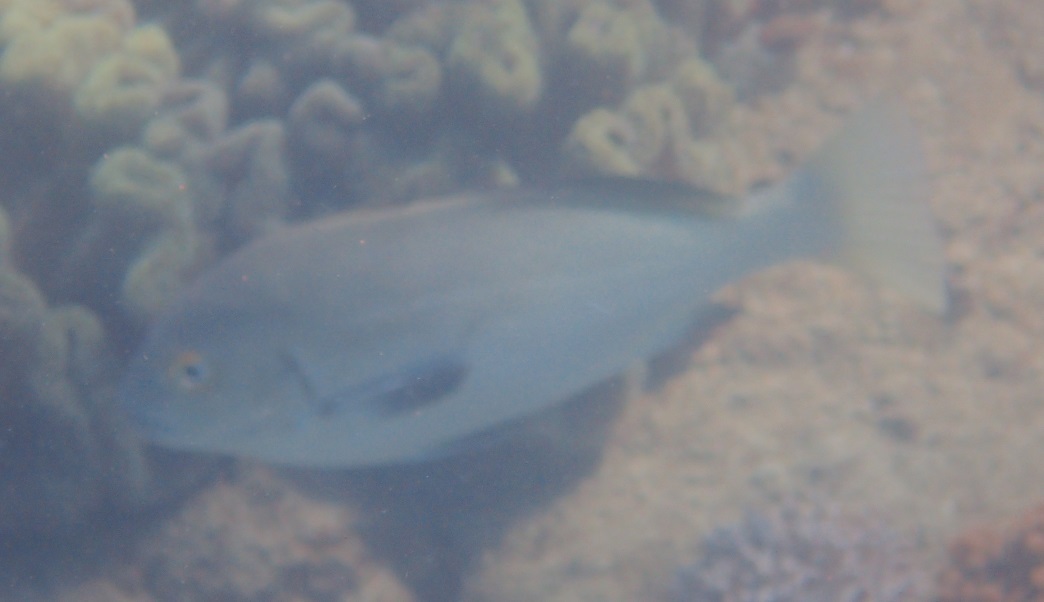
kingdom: Animalia
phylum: Chordata
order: Perciformes
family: Haemulidae
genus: Plectorhinchus
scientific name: Plectorhinchus schotaf
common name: Minstrel sweetlips
